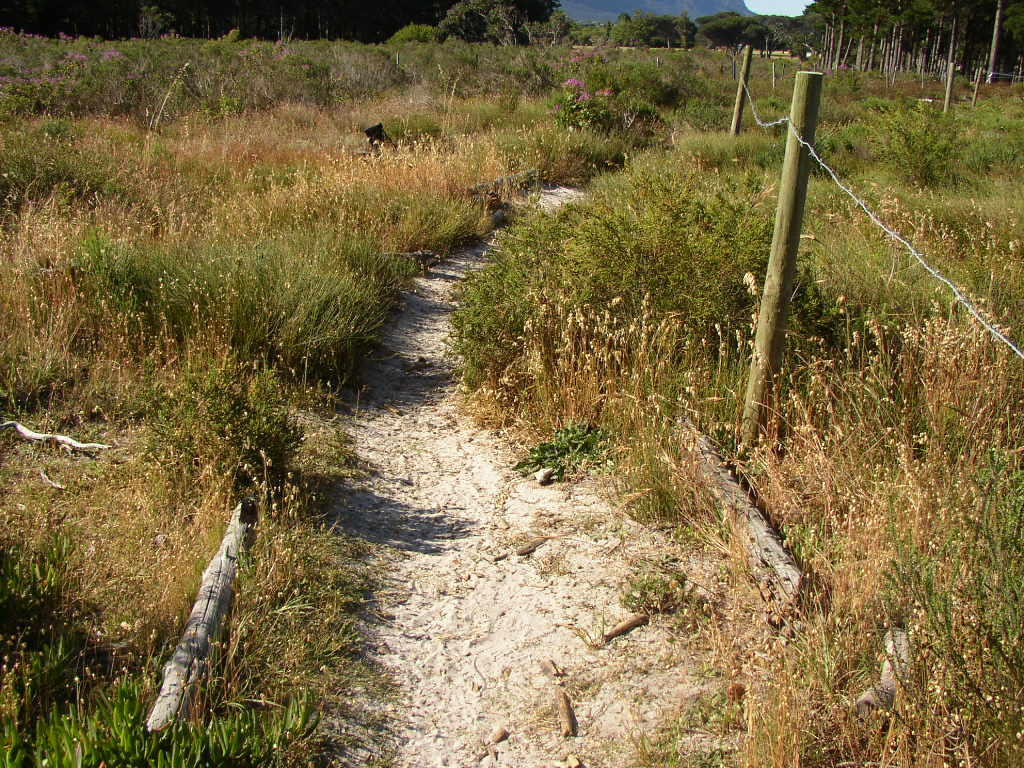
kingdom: Plantae
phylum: Tracheophyta
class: Liliopsida
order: Poales
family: Poaceae
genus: Briza
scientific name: Briza maxima
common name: Big quakinggrass
